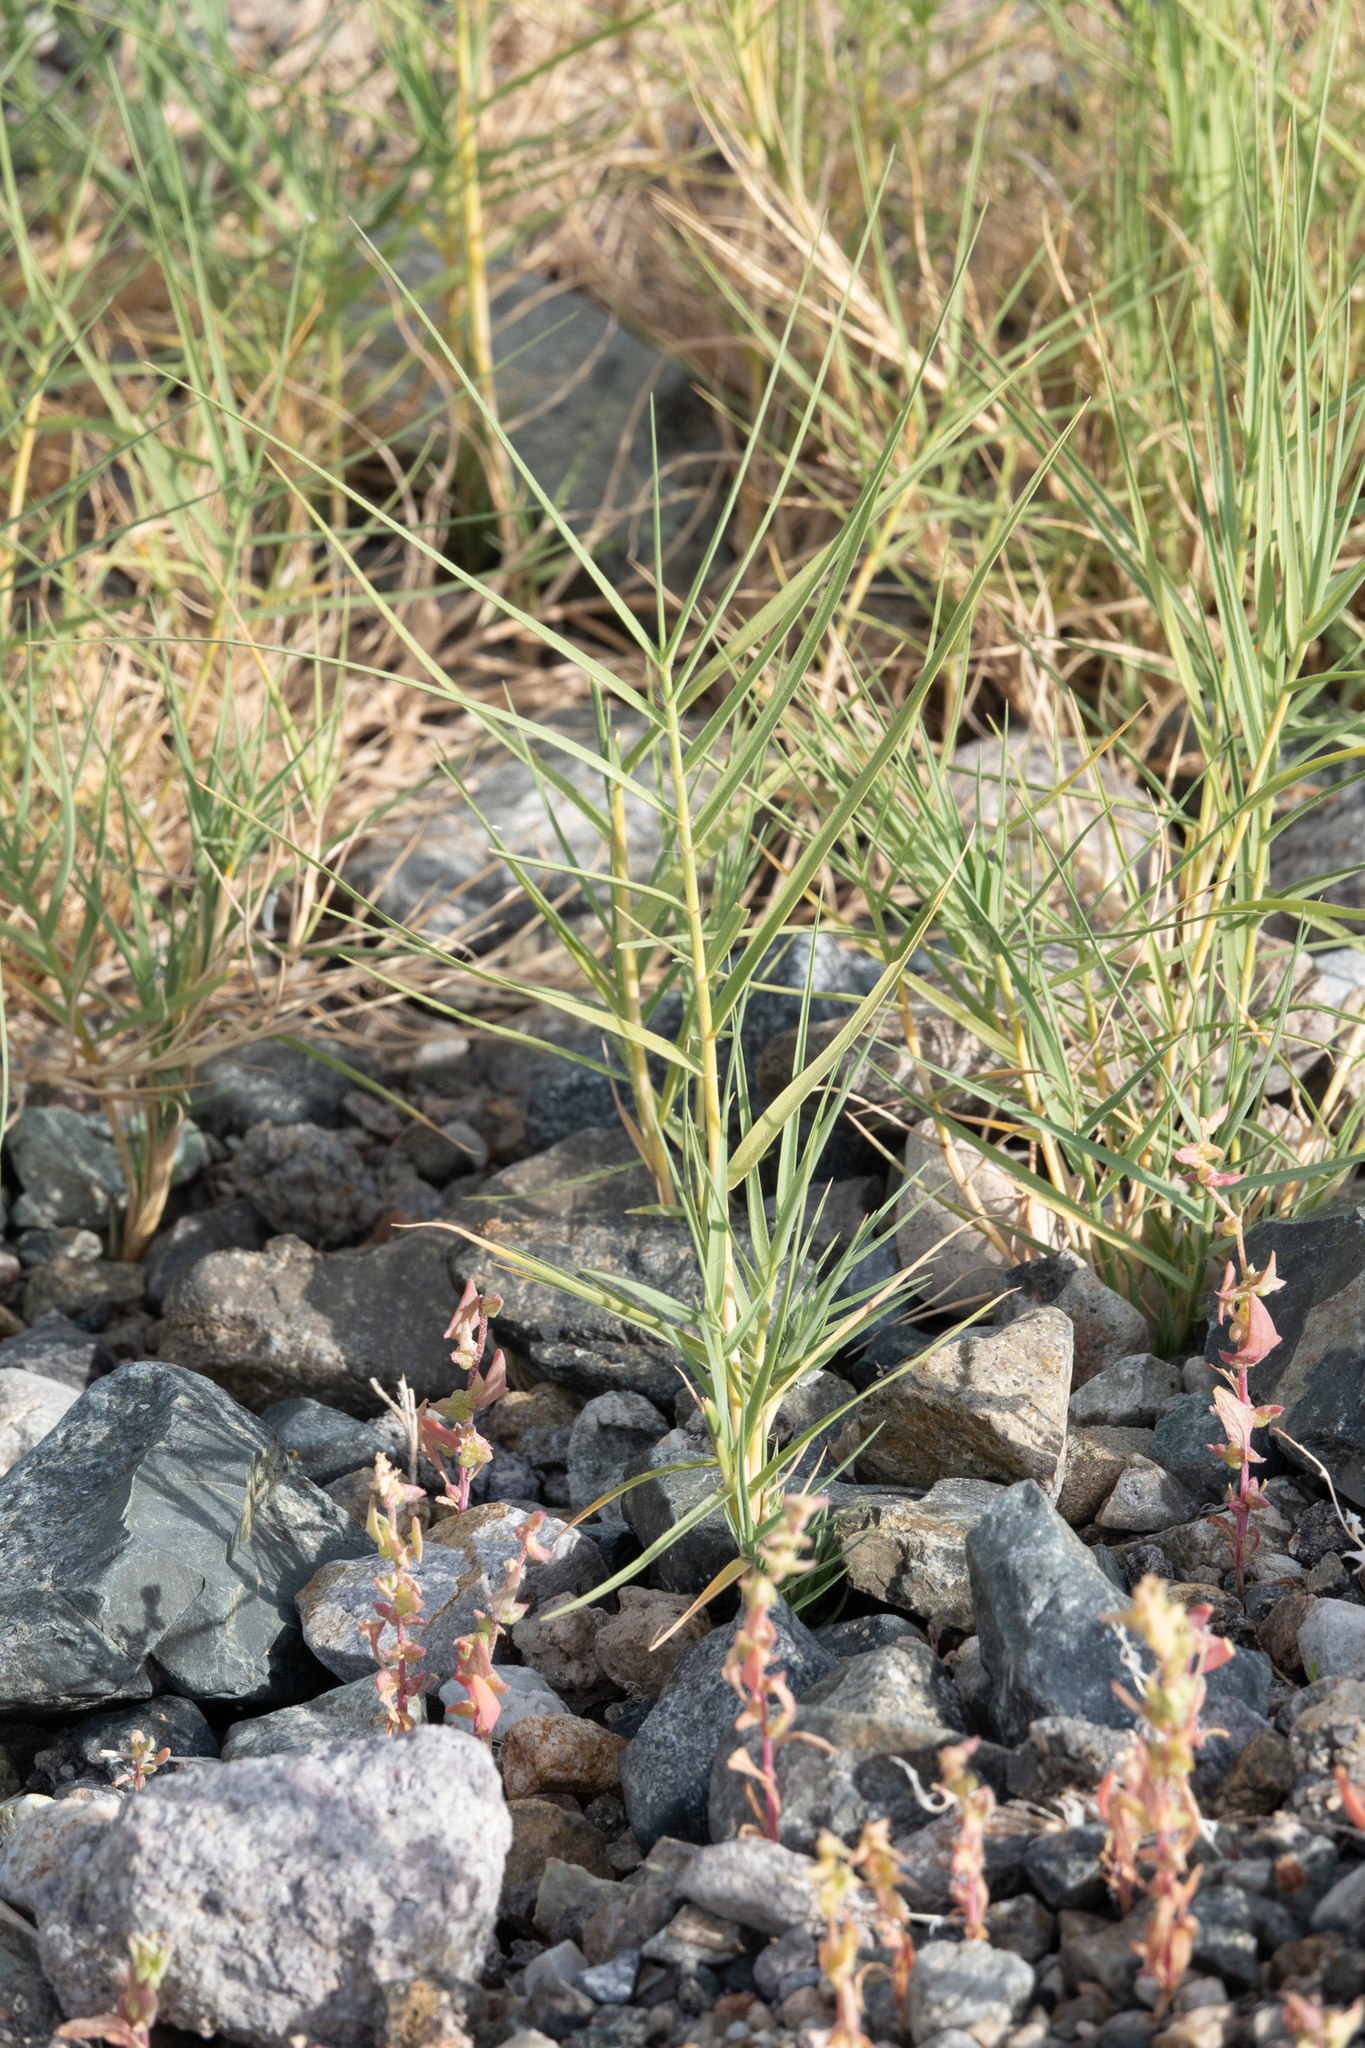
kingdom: Plantae
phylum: Tracheophyta
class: Liliopsida
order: Poales
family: Poaceae
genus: Distichlis
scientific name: Distichlis spicata
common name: Saltgrass
